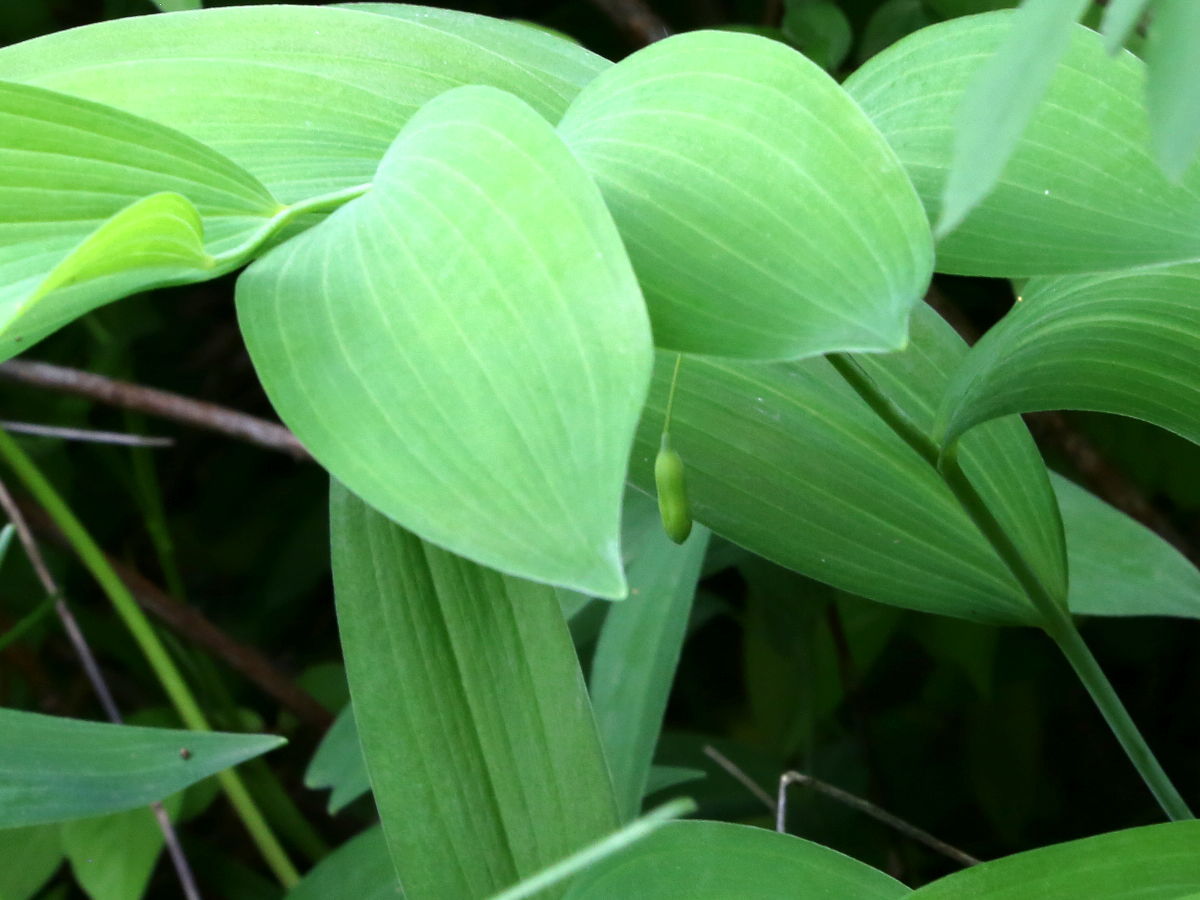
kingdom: Plantae
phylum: Tracheophyta
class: Liliopsida
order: Asparagales
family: Asparagaceae
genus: Polygonatum
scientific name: Polygonatum biflorum
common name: American solomon's-seal
